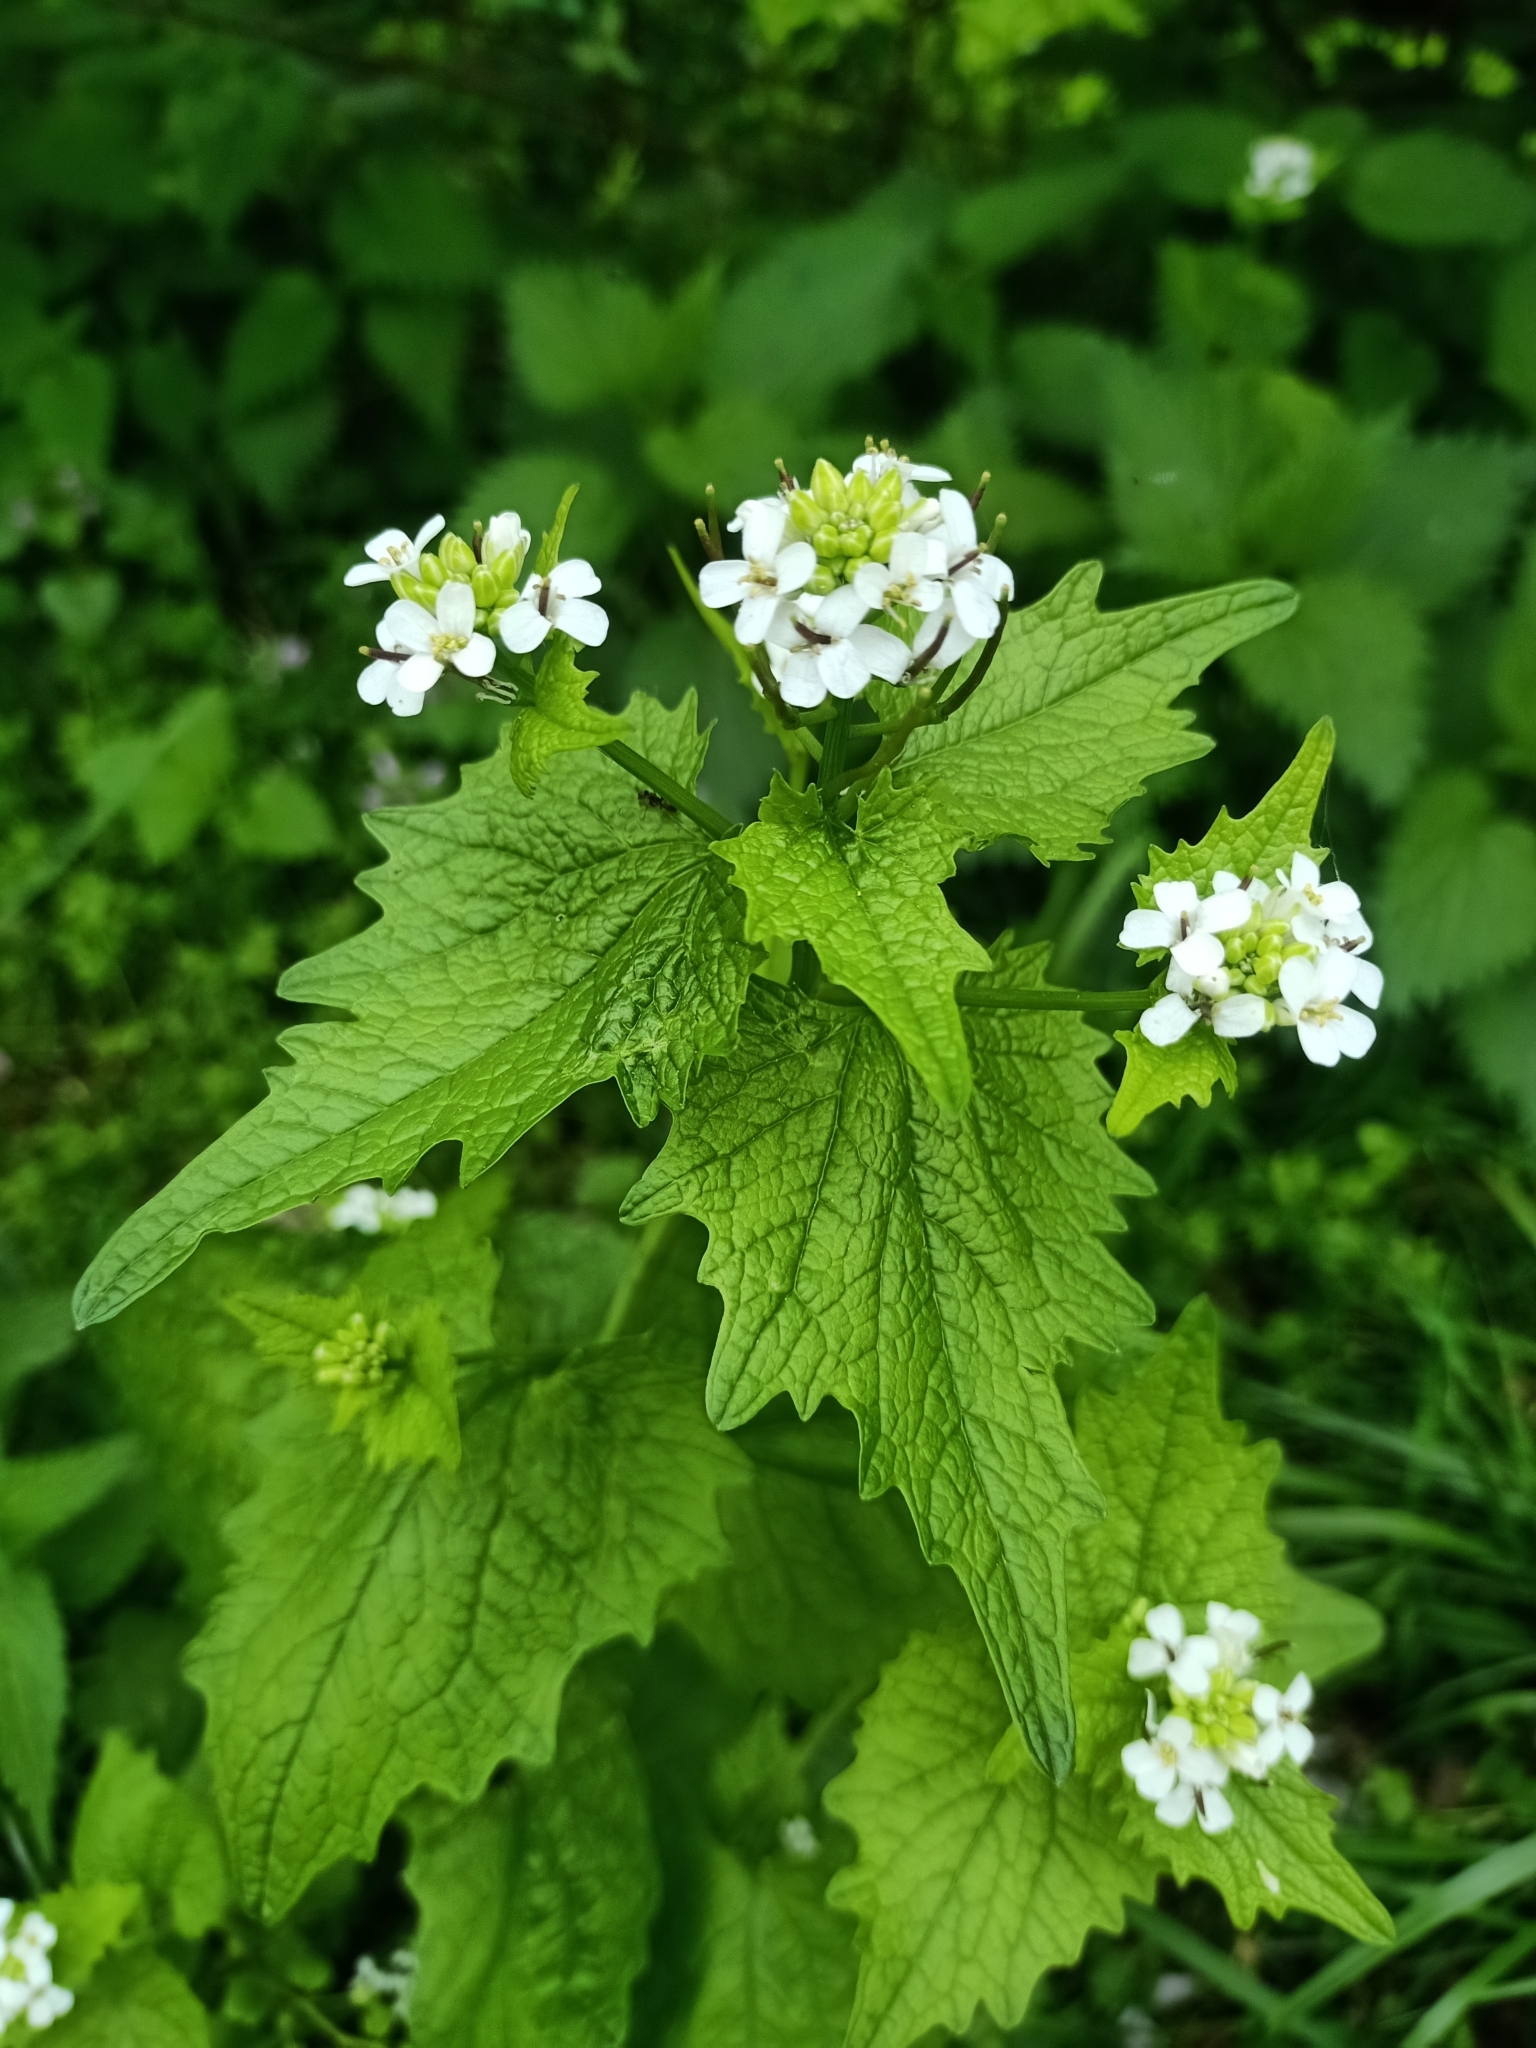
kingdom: Plantae
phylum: Tracheophyta
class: Magnoliopsida
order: Brassicales
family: Brassicaceae
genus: Alliaria
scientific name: Alliaria petiolata
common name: Garlic mustard
